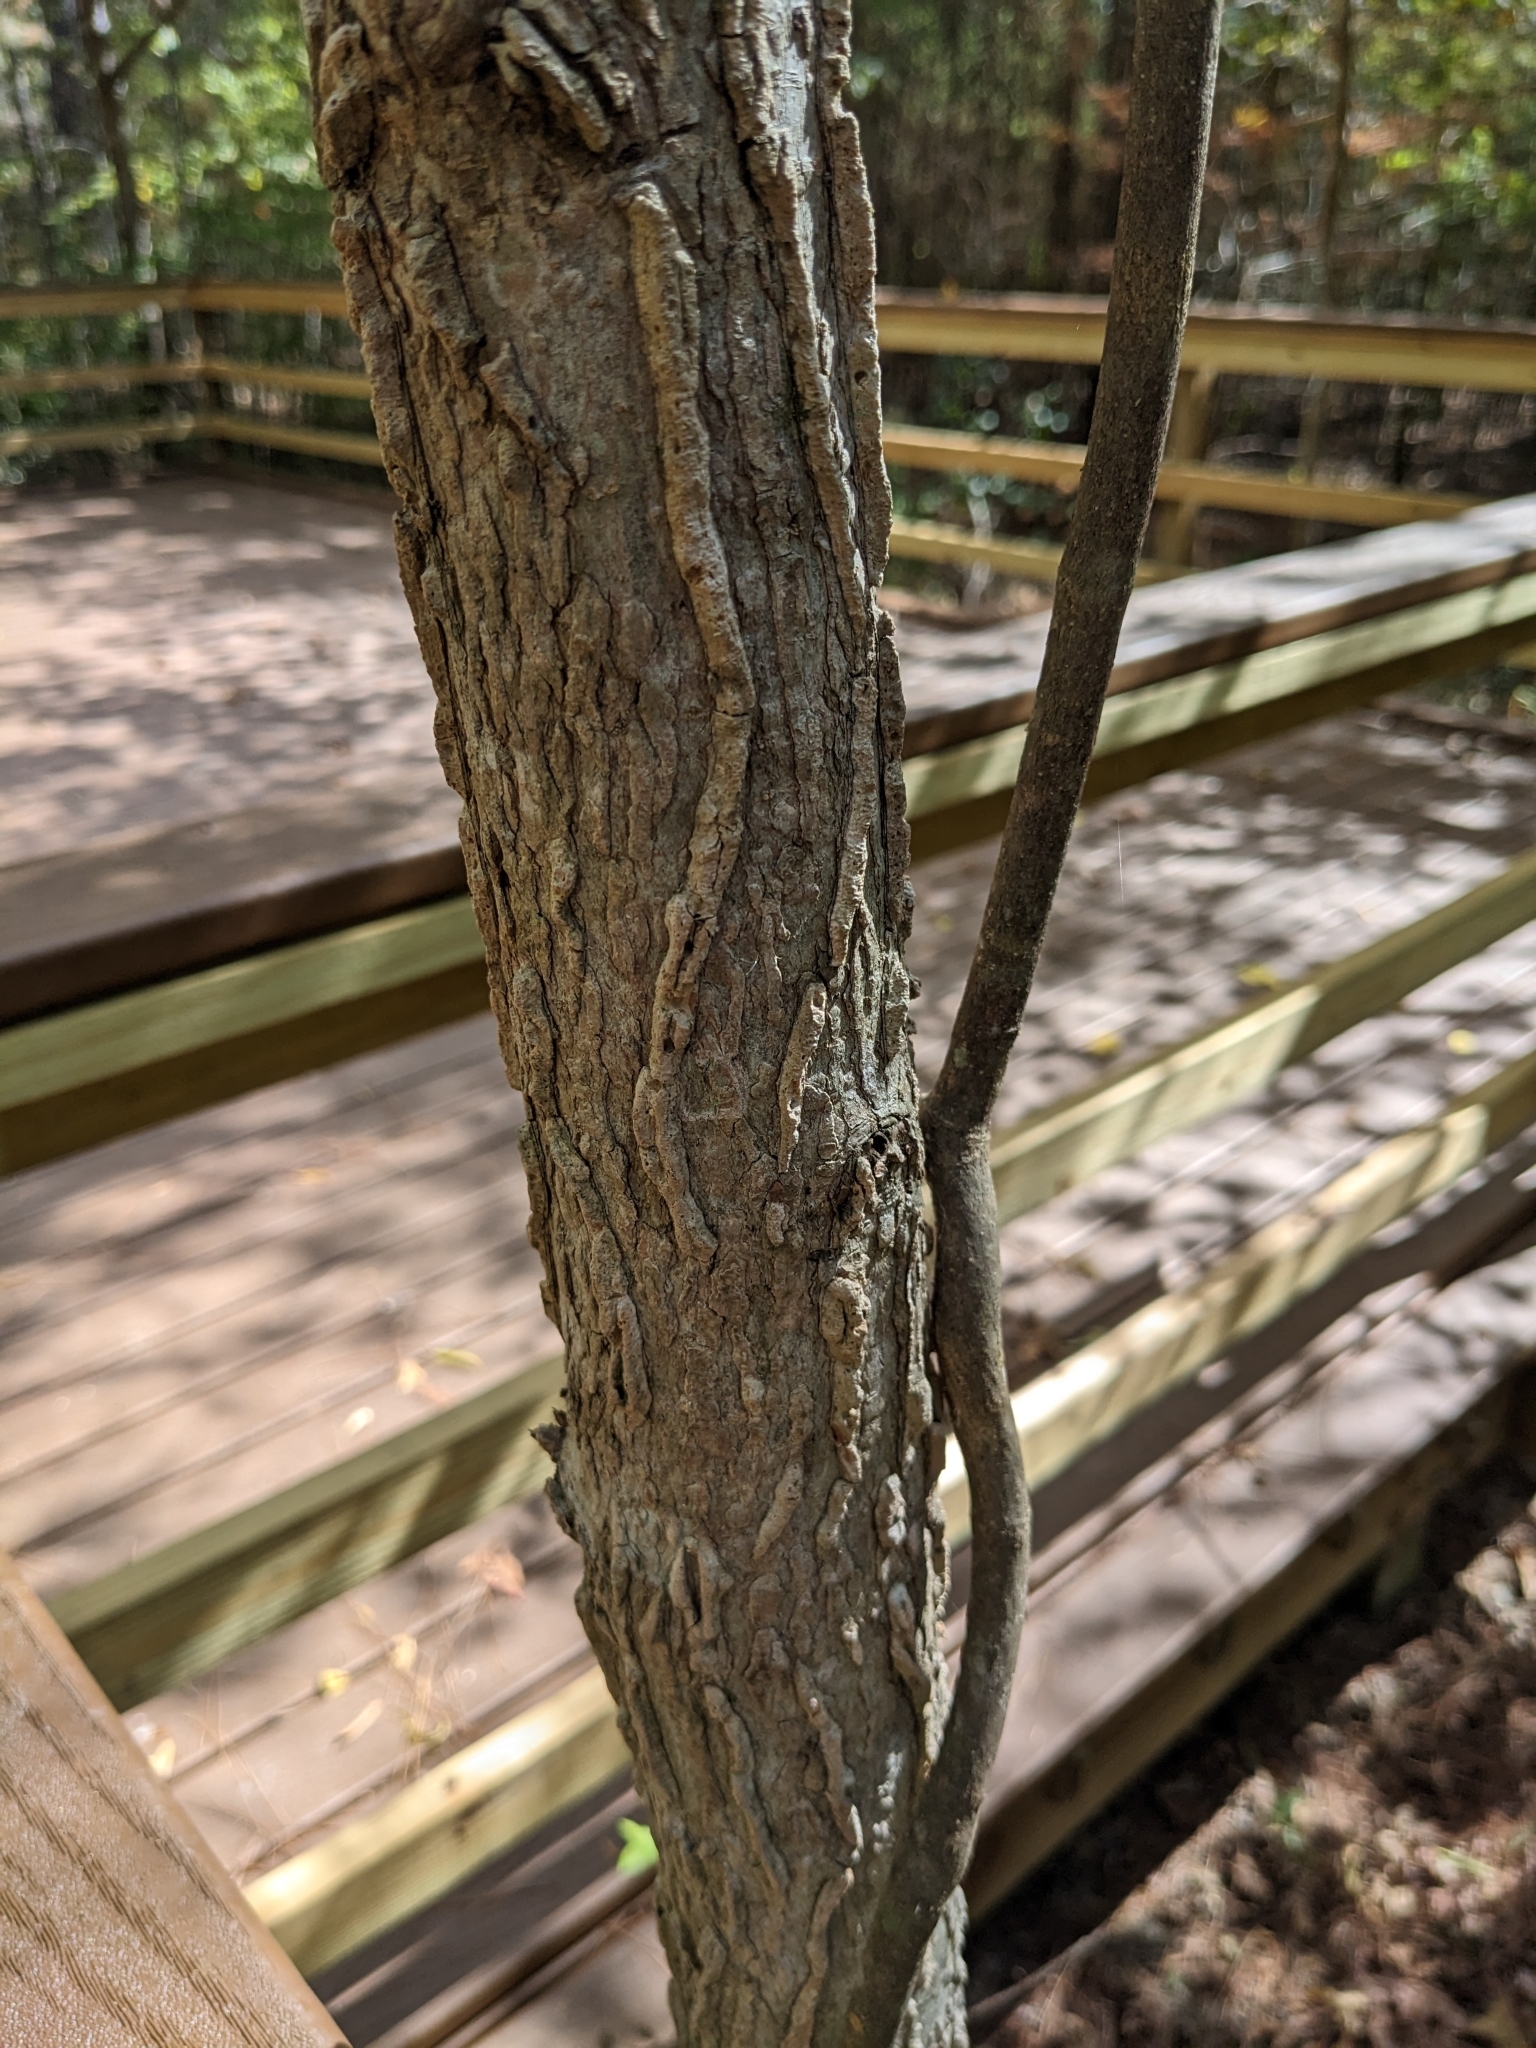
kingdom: Plantae
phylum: Tracheophyta
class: Magnoliopsida
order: Saxifragales
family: Altingiaceae
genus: Liquidambar
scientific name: Liquidambar styraciflua
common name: Sweet gum
